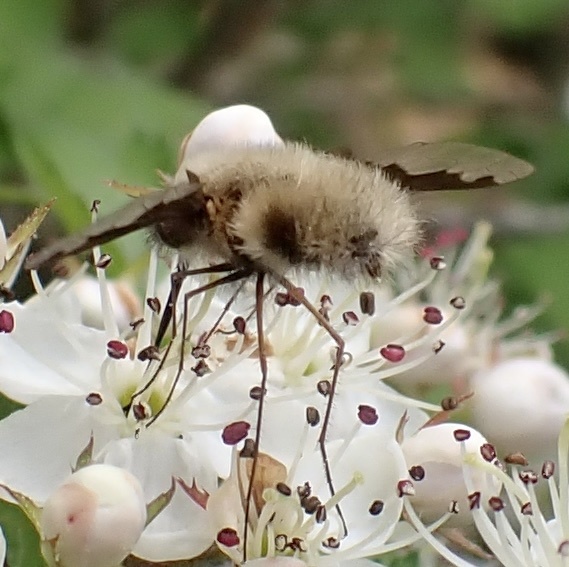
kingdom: Animalia
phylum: Arthropoda
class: Insecta
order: Diptera
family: Bombyliidae
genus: Bombylius
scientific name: Bombylius major
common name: Bee fly
